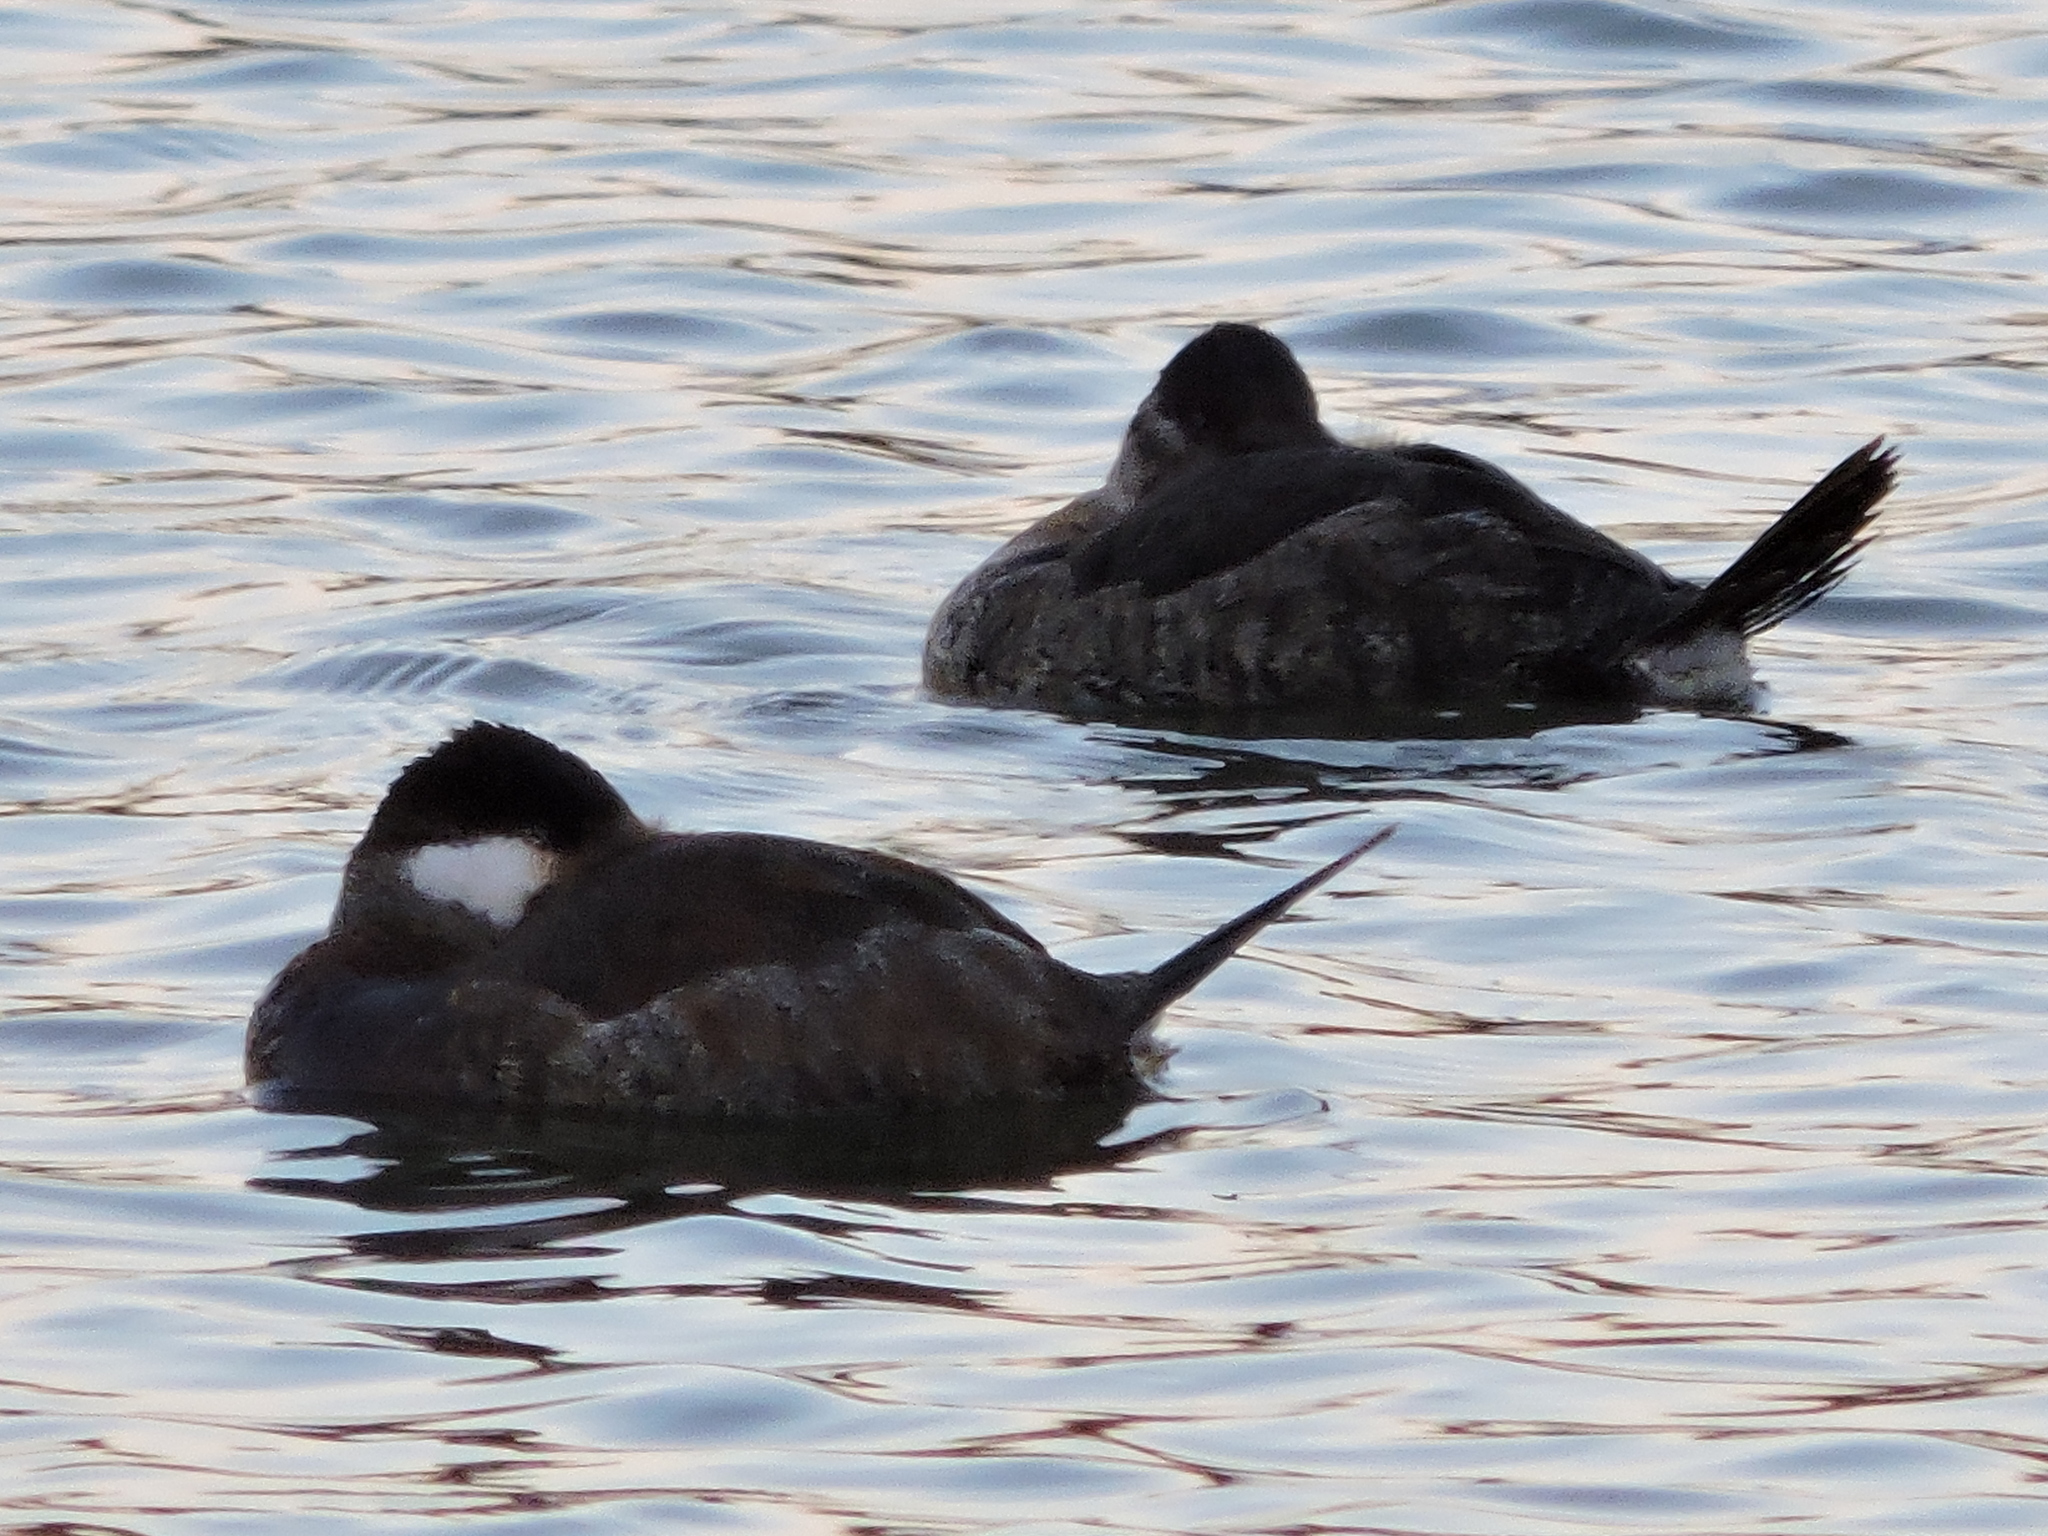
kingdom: Animalia
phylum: Chordata
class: Aves
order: Anseriformes
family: Anatidae
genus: Oxyura
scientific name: Oxyura jamaicensis
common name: Ruddy duck
